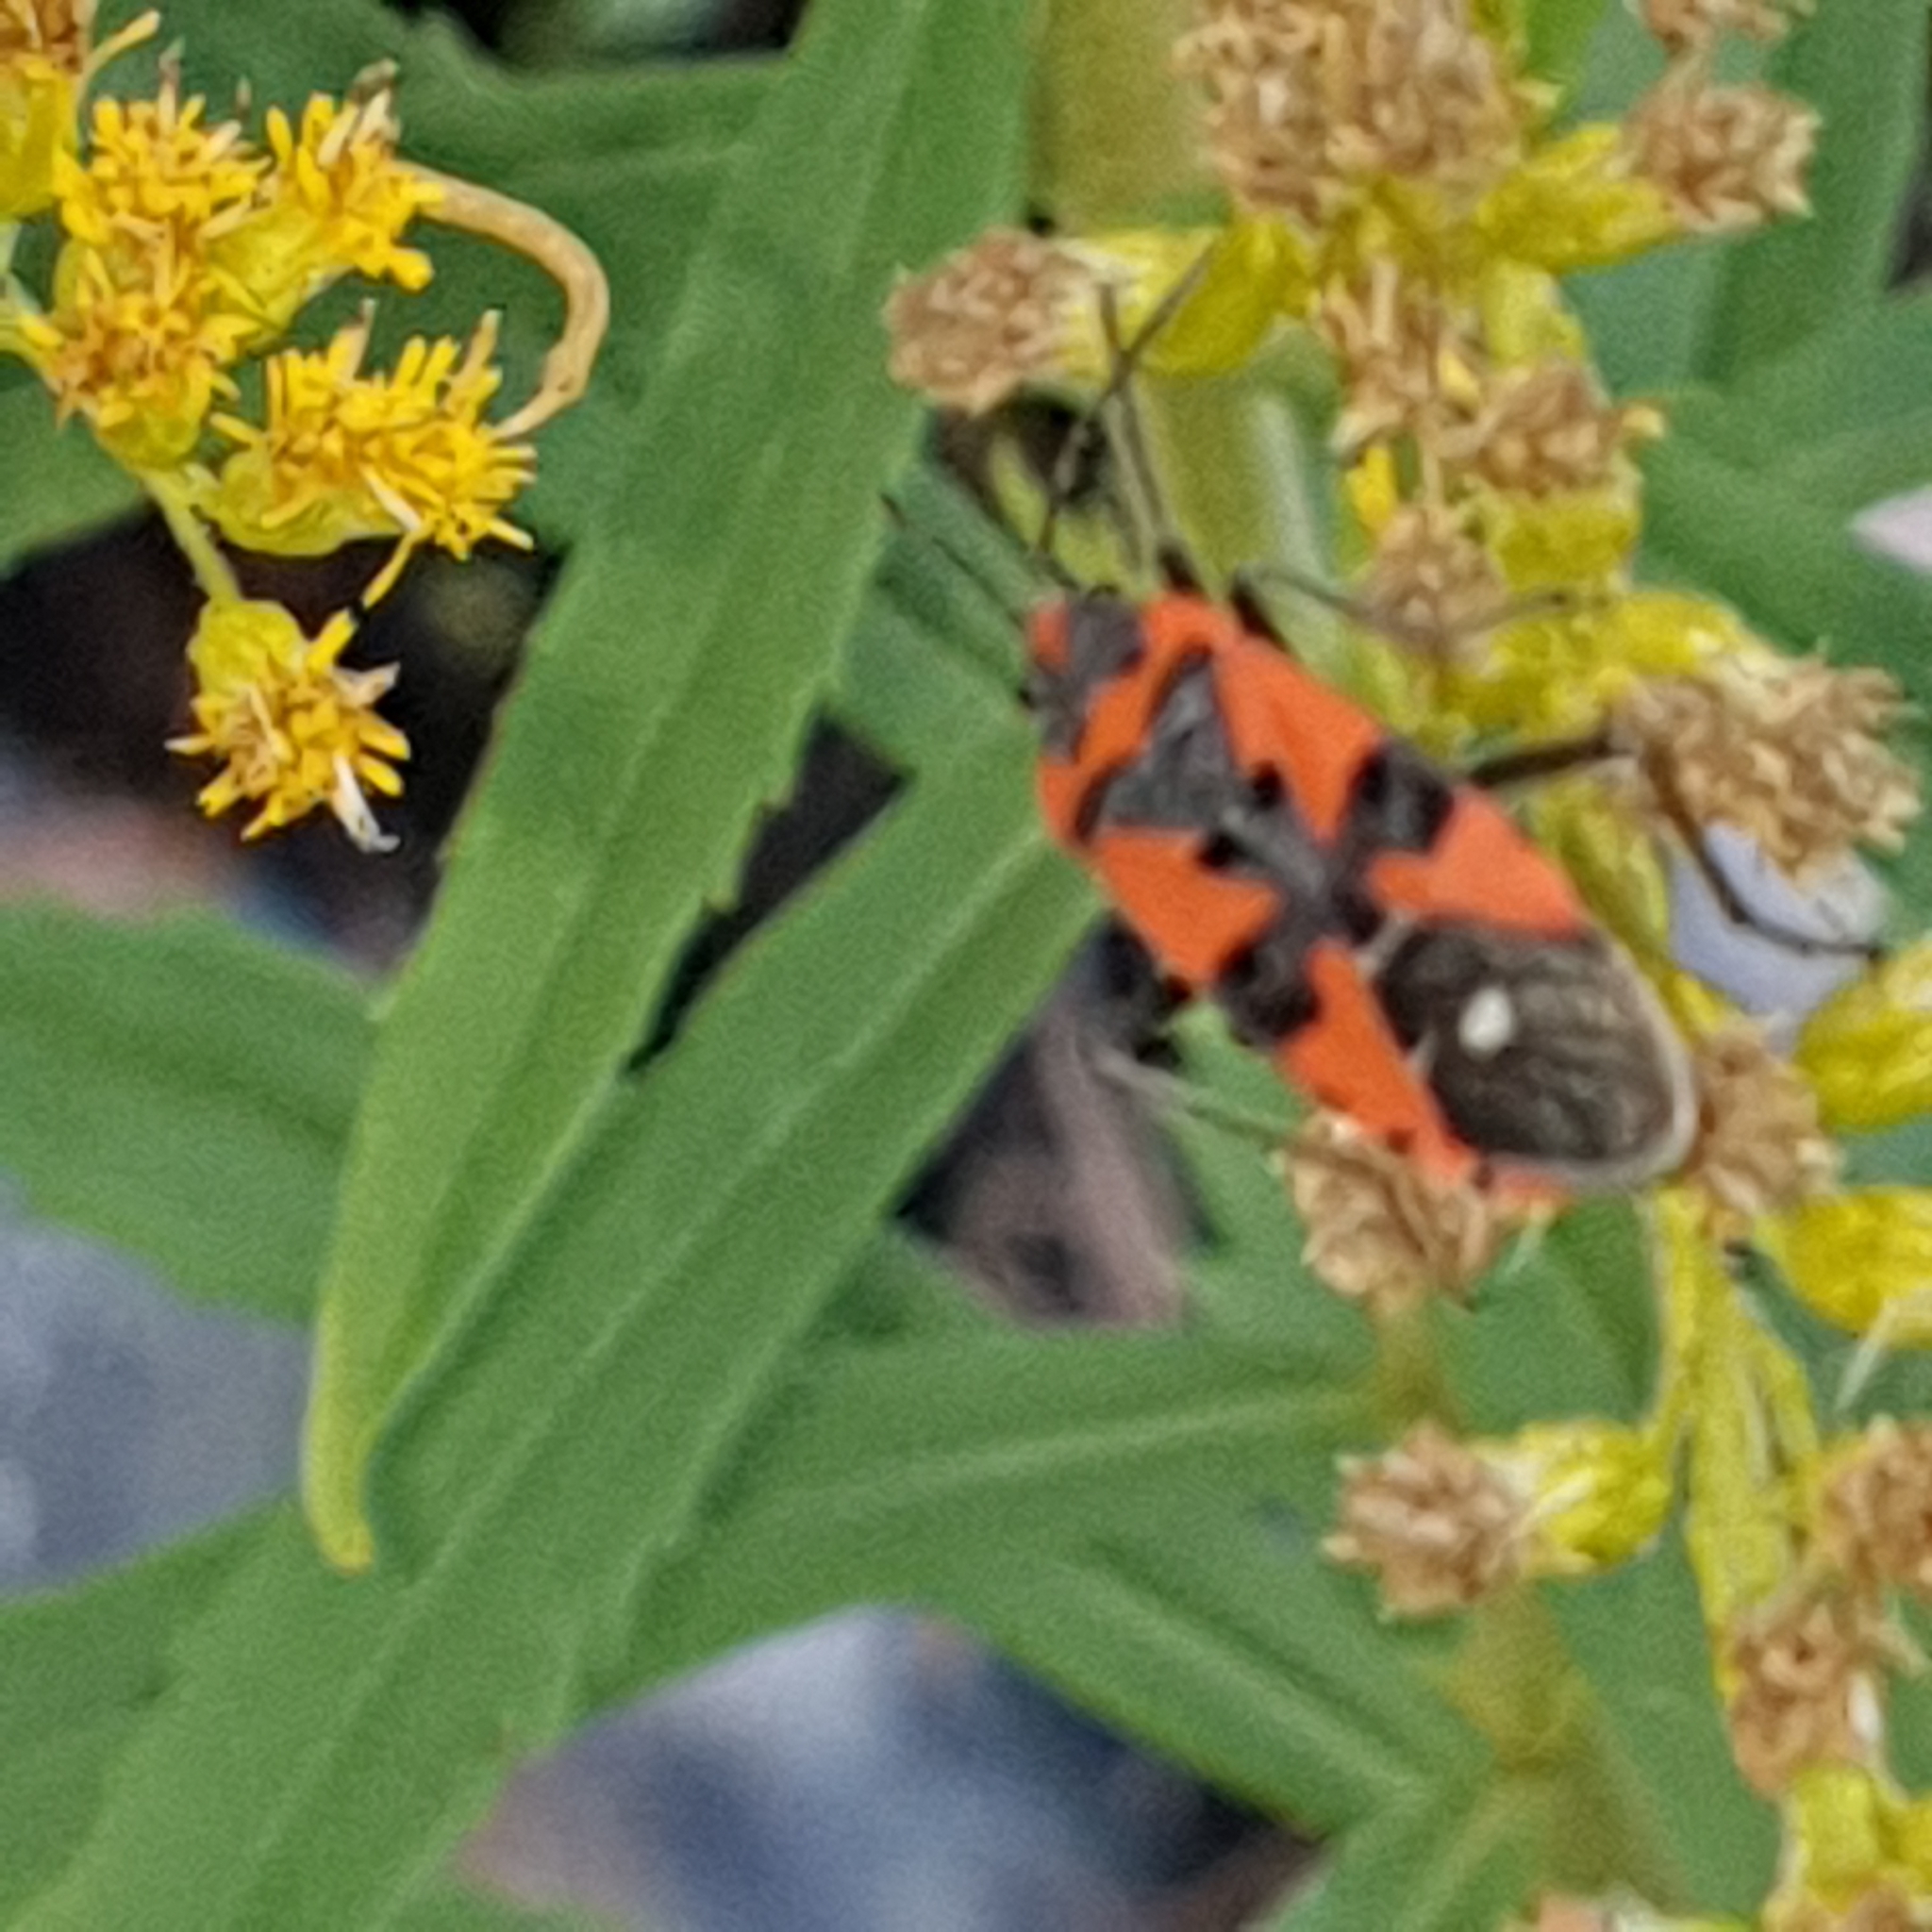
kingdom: Animalia
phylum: Arthropoda
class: Insecta
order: Hemiptera
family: Lygaeidae
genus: Lygaeus
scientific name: Lygaeus equestris
